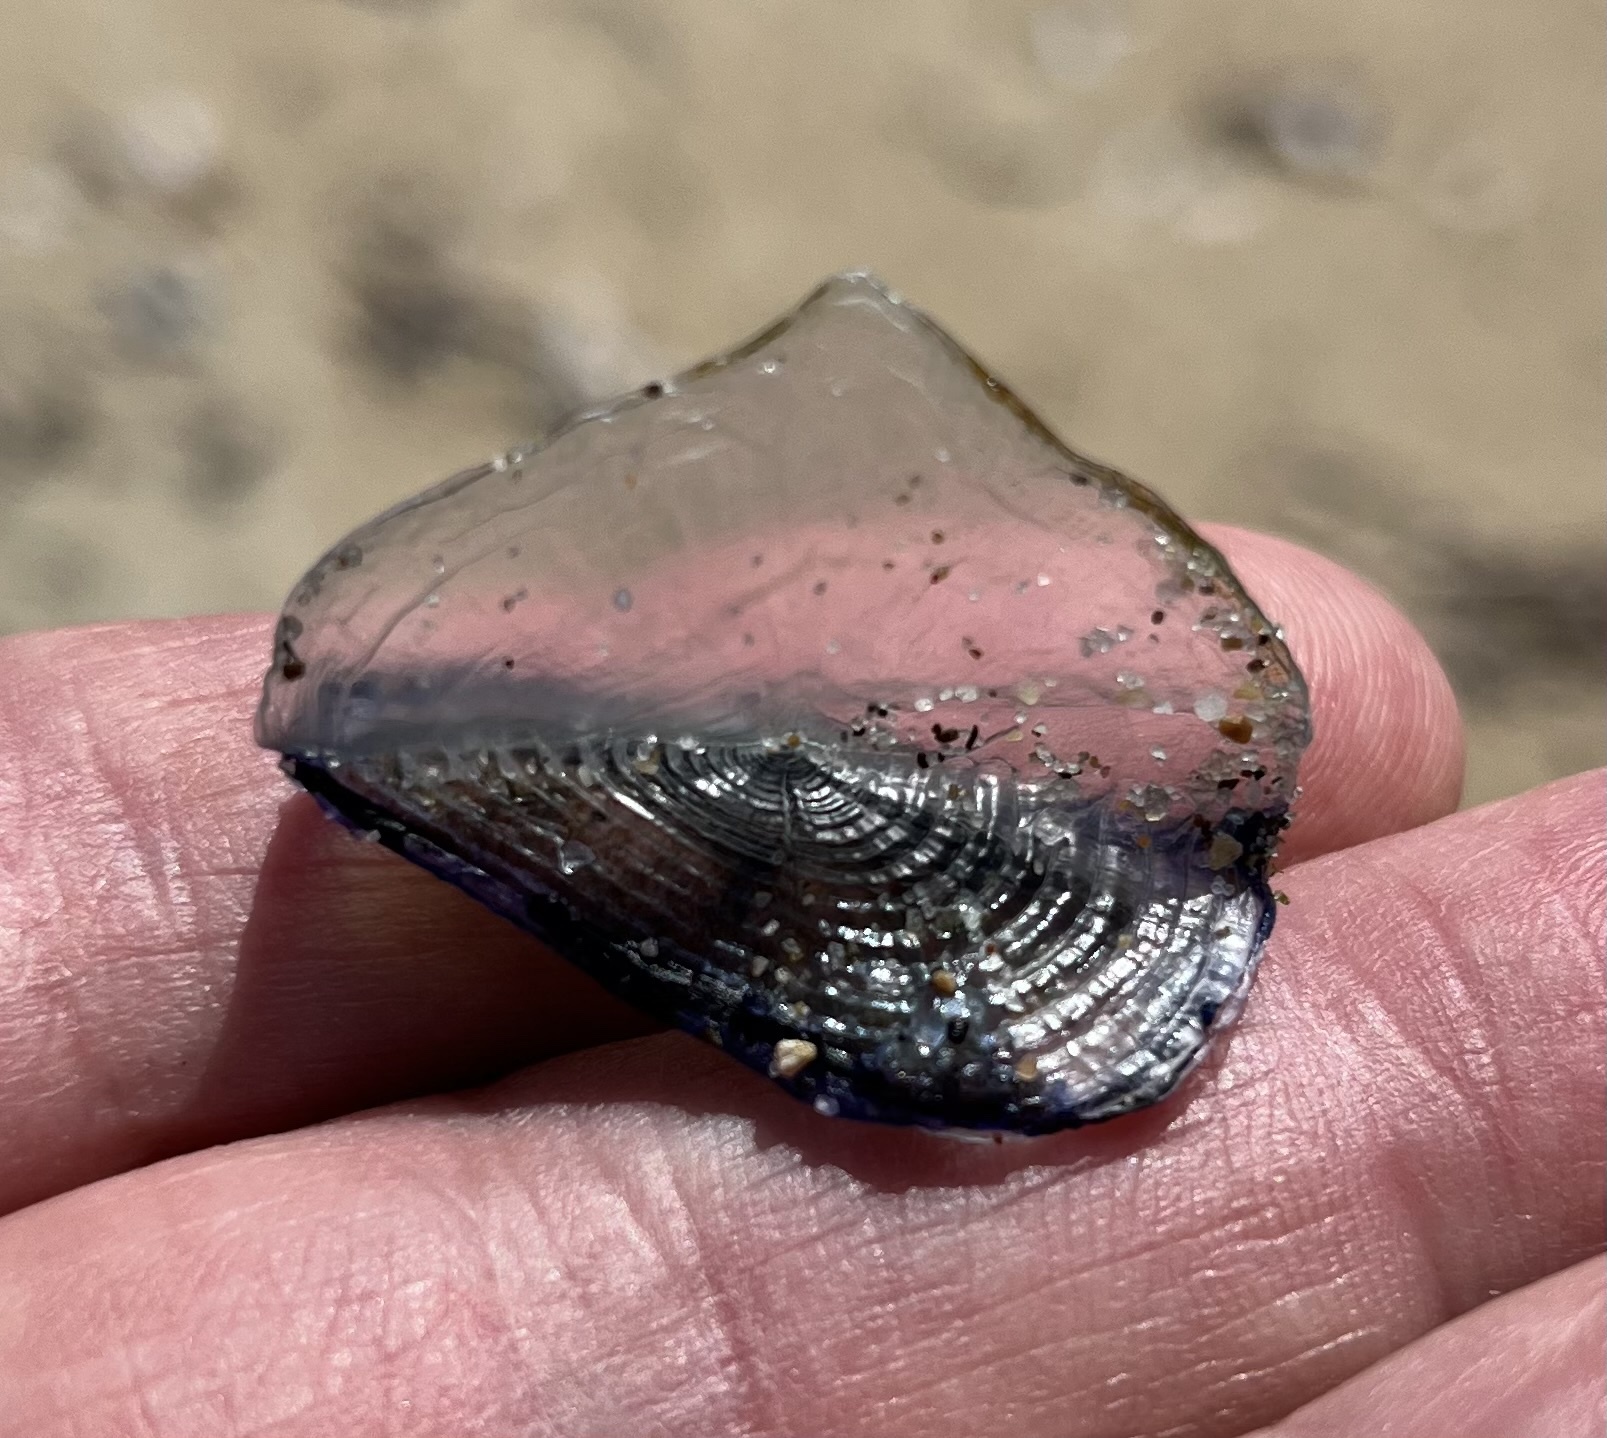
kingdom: Animalia
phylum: Cnidaria
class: Hydrozoa
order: Anthoathecata
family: Porpitidae
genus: Velella
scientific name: Velella velella
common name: By-the-wind-sailor
